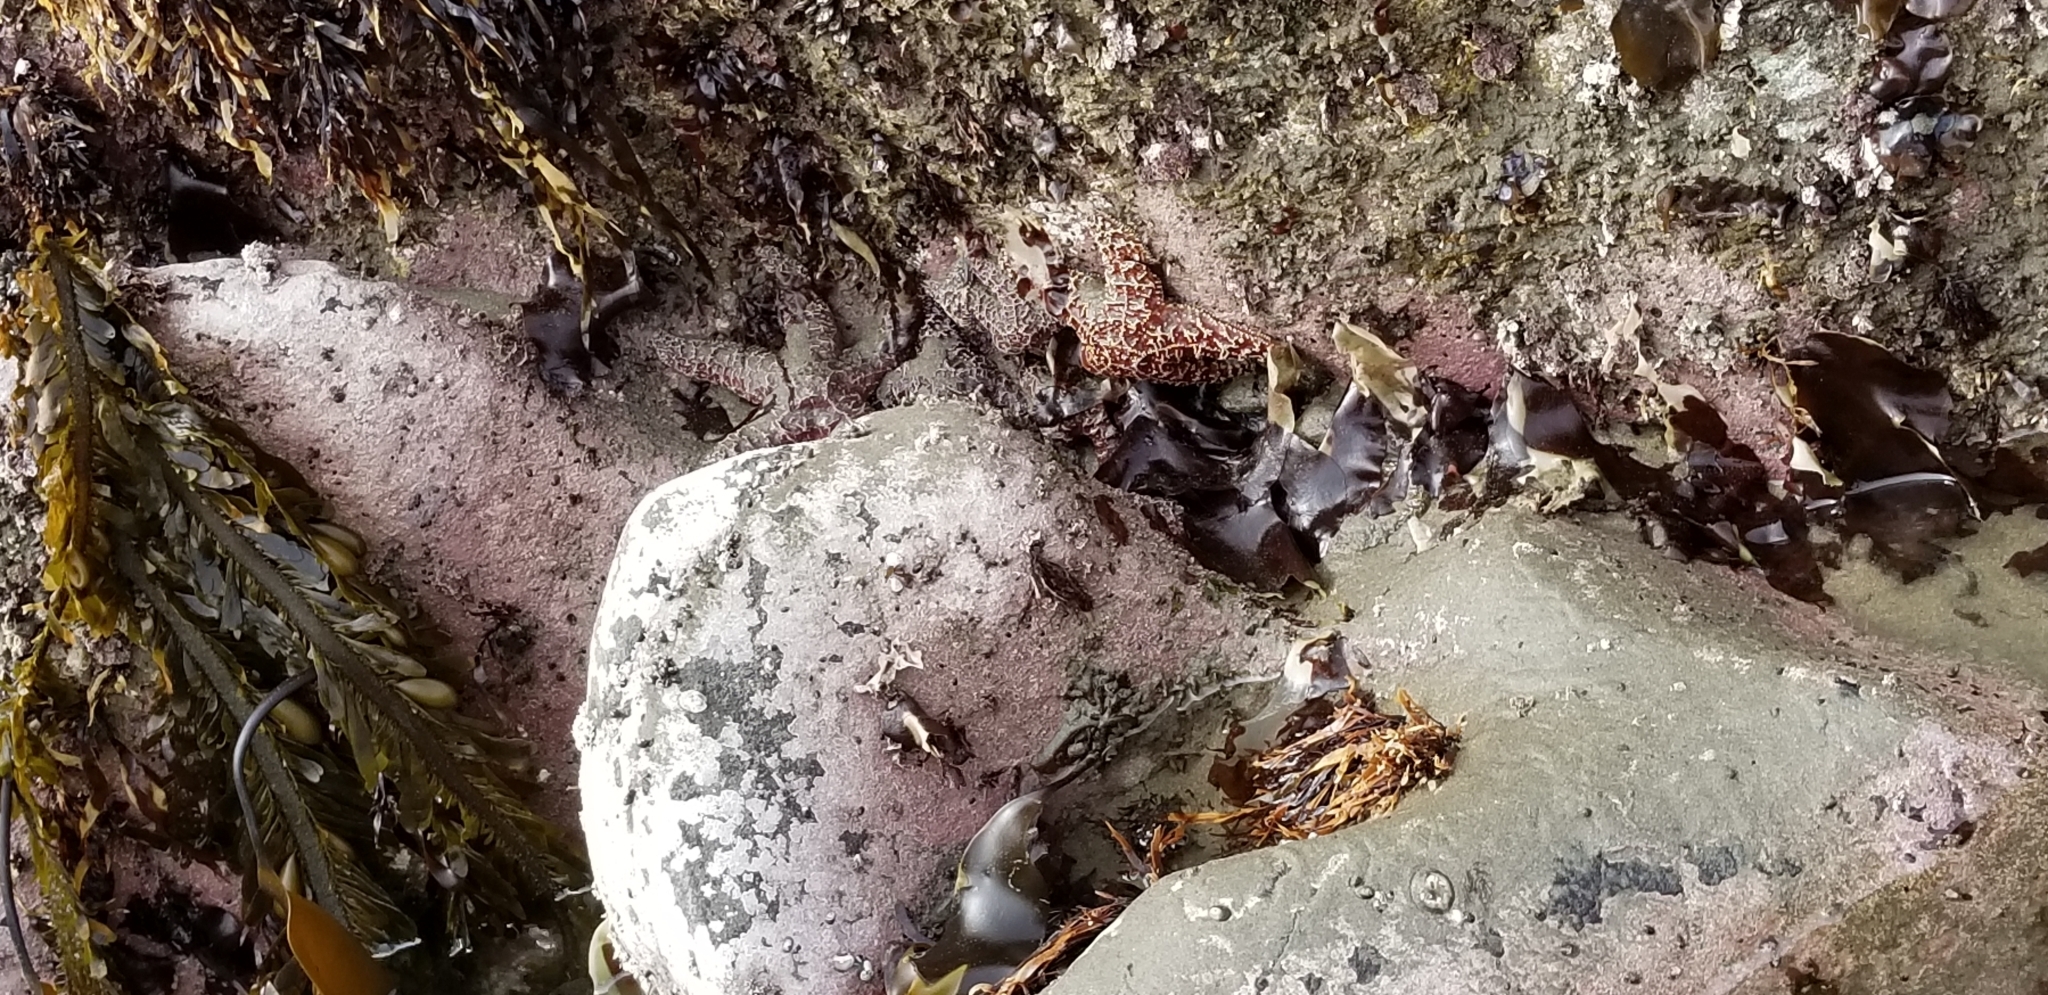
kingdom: Animalia
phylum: Echinodermata
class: Asteroidea
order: Forcipulatida
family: Asteriidae
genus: Pisaster
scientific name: Pisaster ochraceus
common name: Ochre stars
